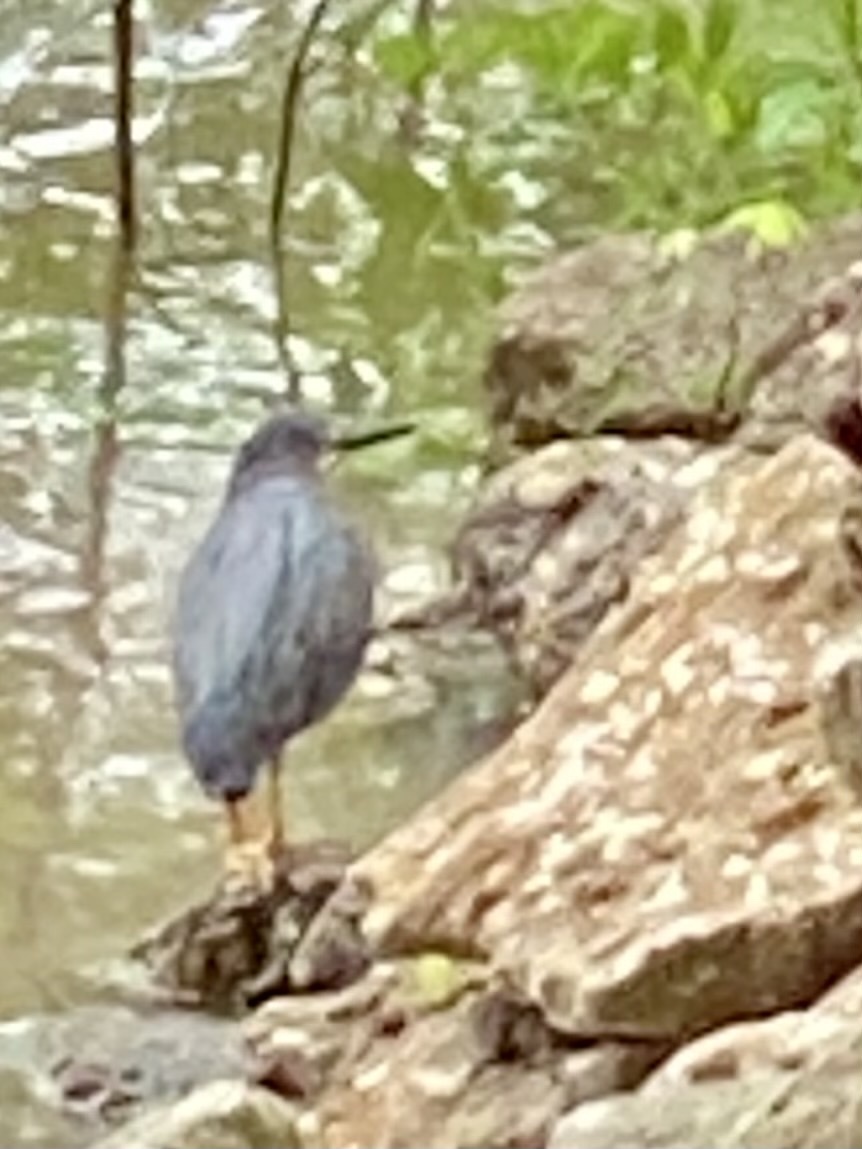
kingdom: Animalia
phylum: Chordata
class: Aves
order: Pelecaniformes
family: Ardeidae
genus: Butorides
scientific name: Butorides virescens
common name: Green heron
